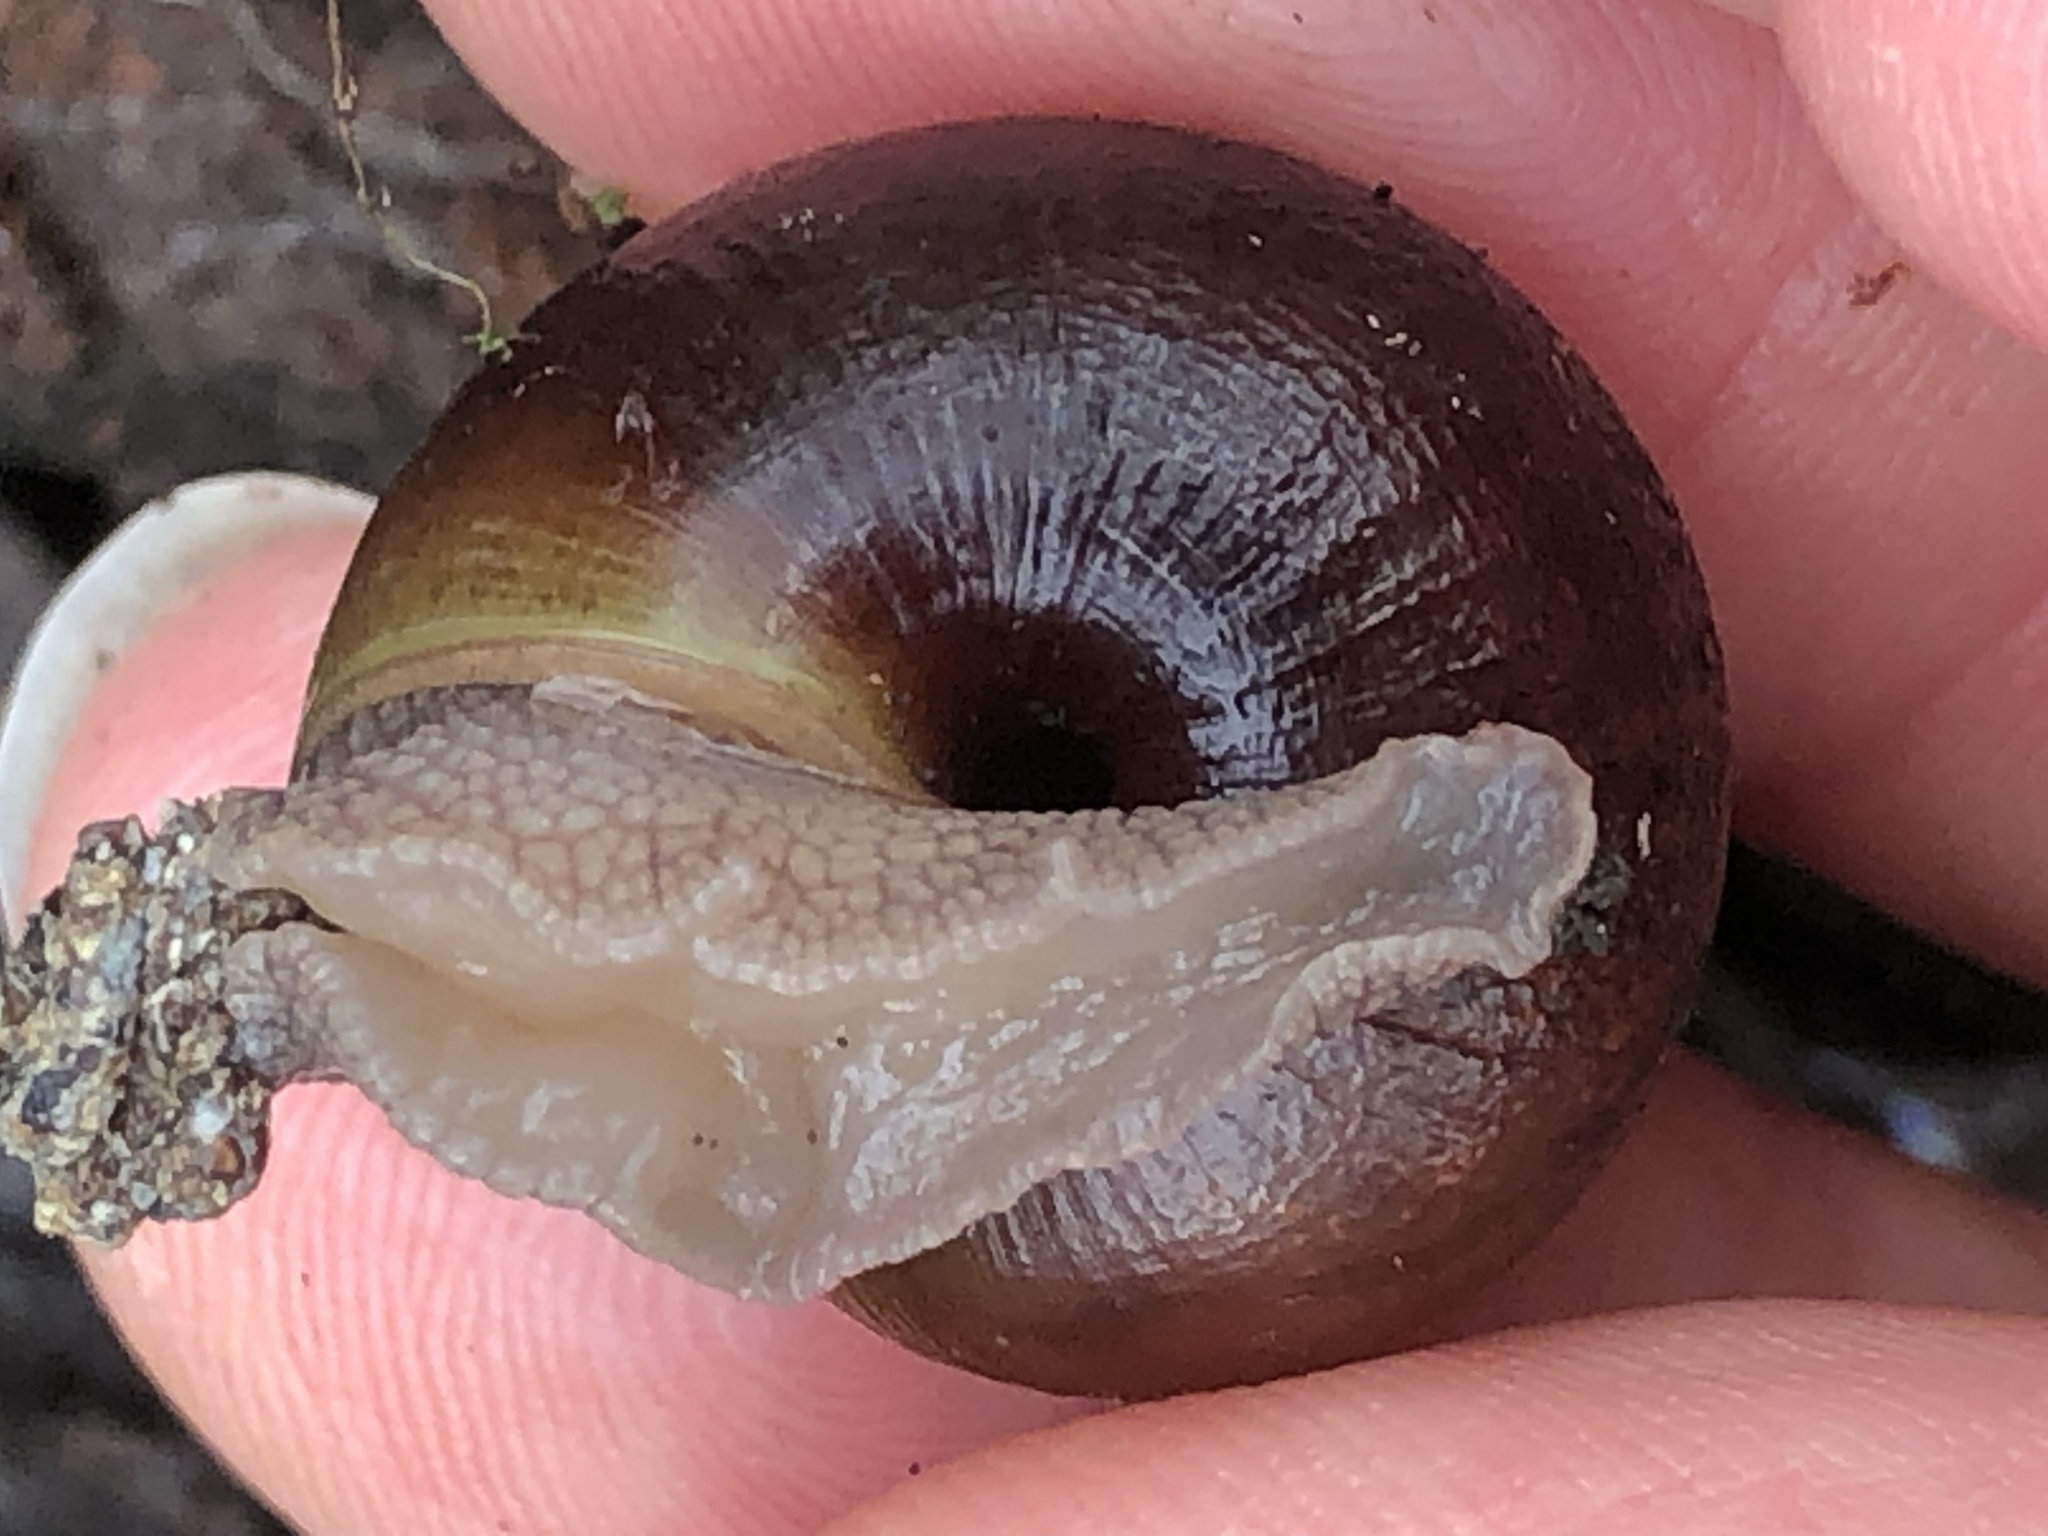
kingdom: Animalia
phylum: Mollusca
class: Gastropoda
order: Stylommatophora
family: Xanthonychidae
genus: Helminthoglypta
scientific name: Helminthoglypta arrosa
